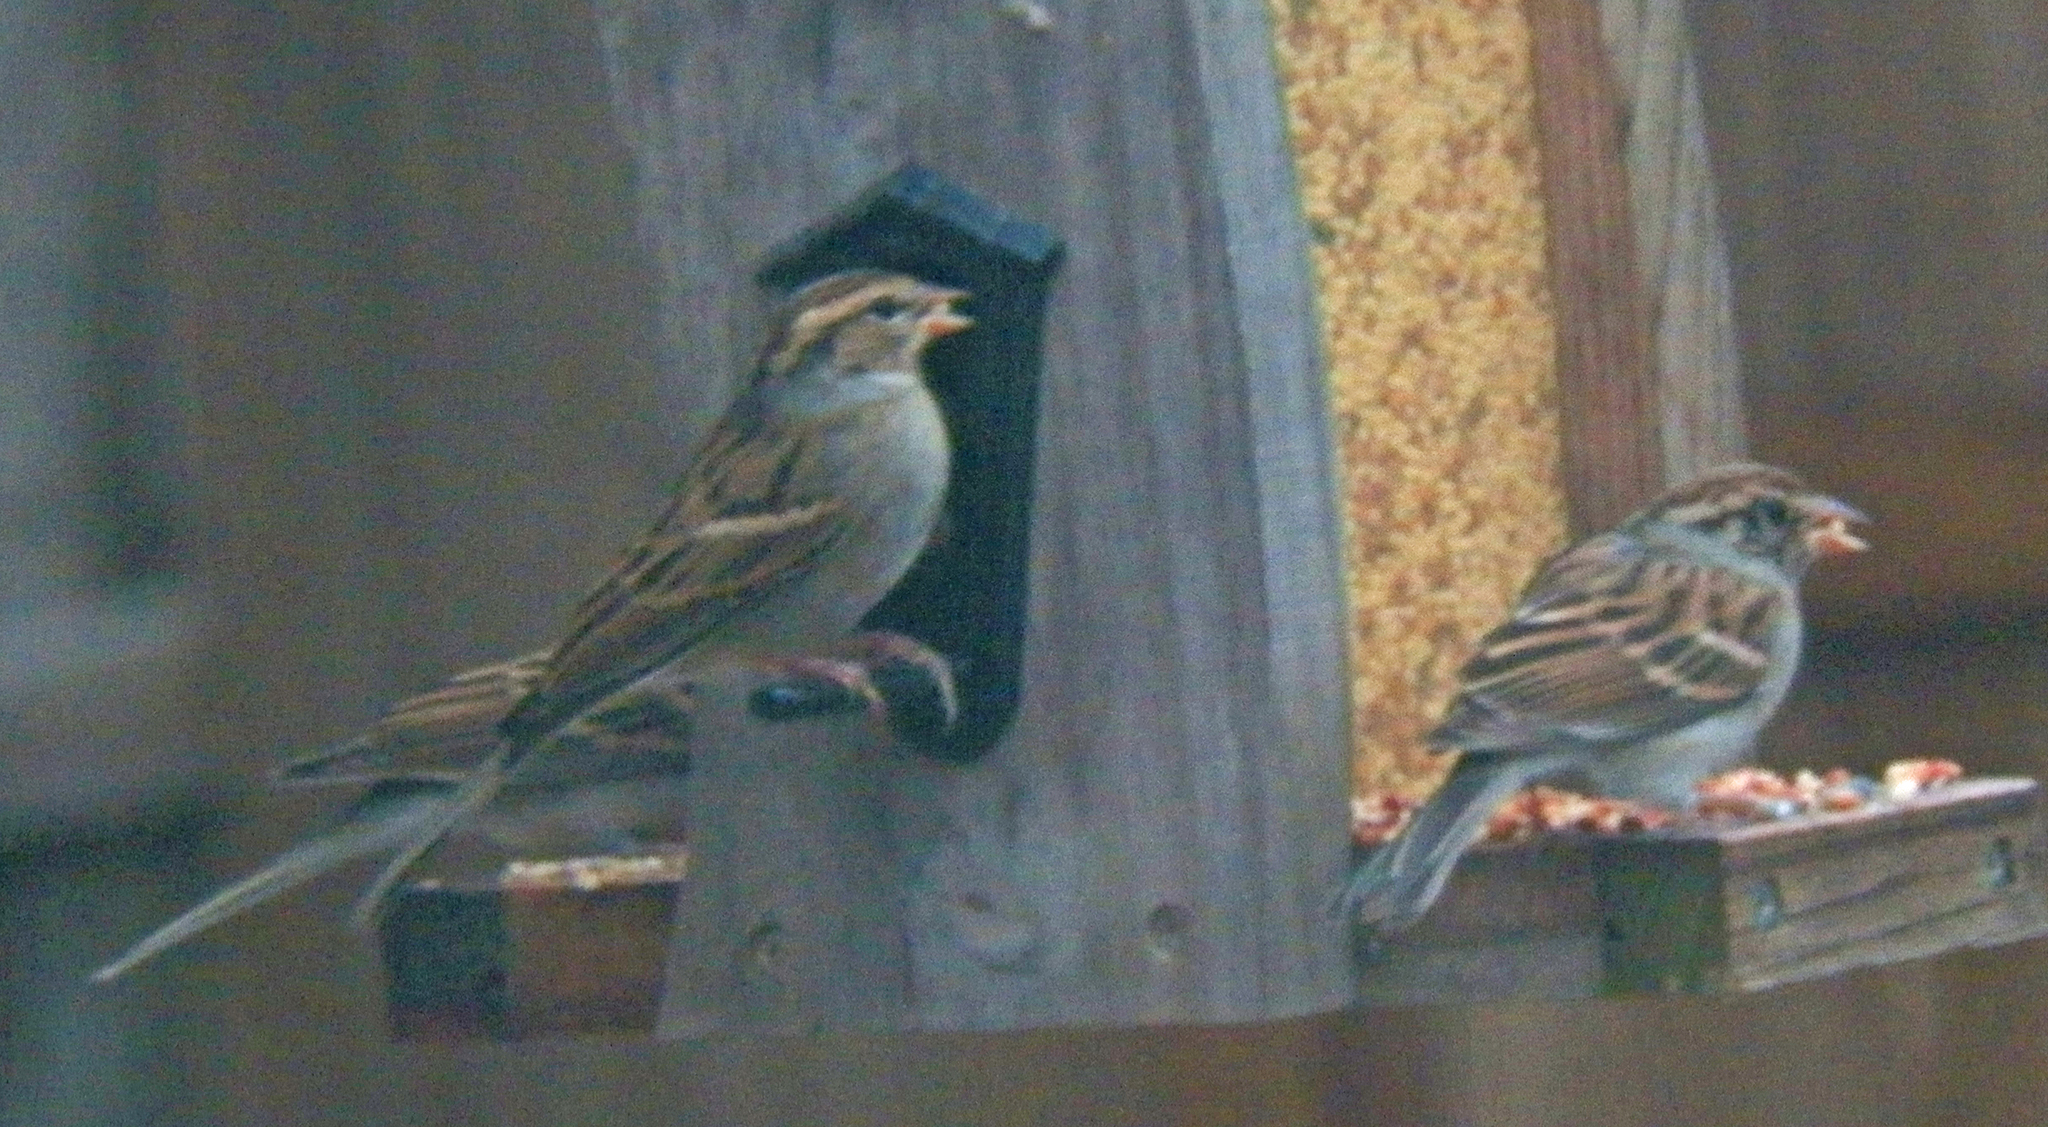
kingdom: Animalia
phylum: Chordata
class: Aves
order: Passeriformes
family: Passerellidae
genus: Spizella
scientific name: Spizella passerina
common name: Chipping sparrow
